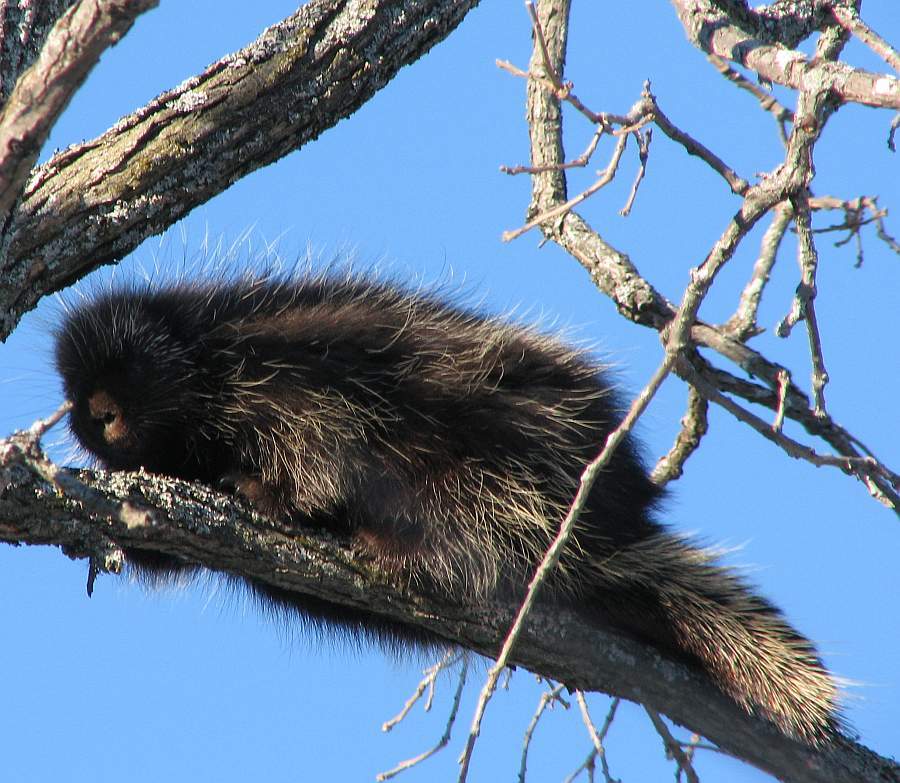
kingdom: Animalia
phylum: Chordata
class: Mammalia
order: Rodentia
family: Erethizontidae
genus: Erethizon
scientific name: Erethizon dorsatus
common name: North american porcupine
